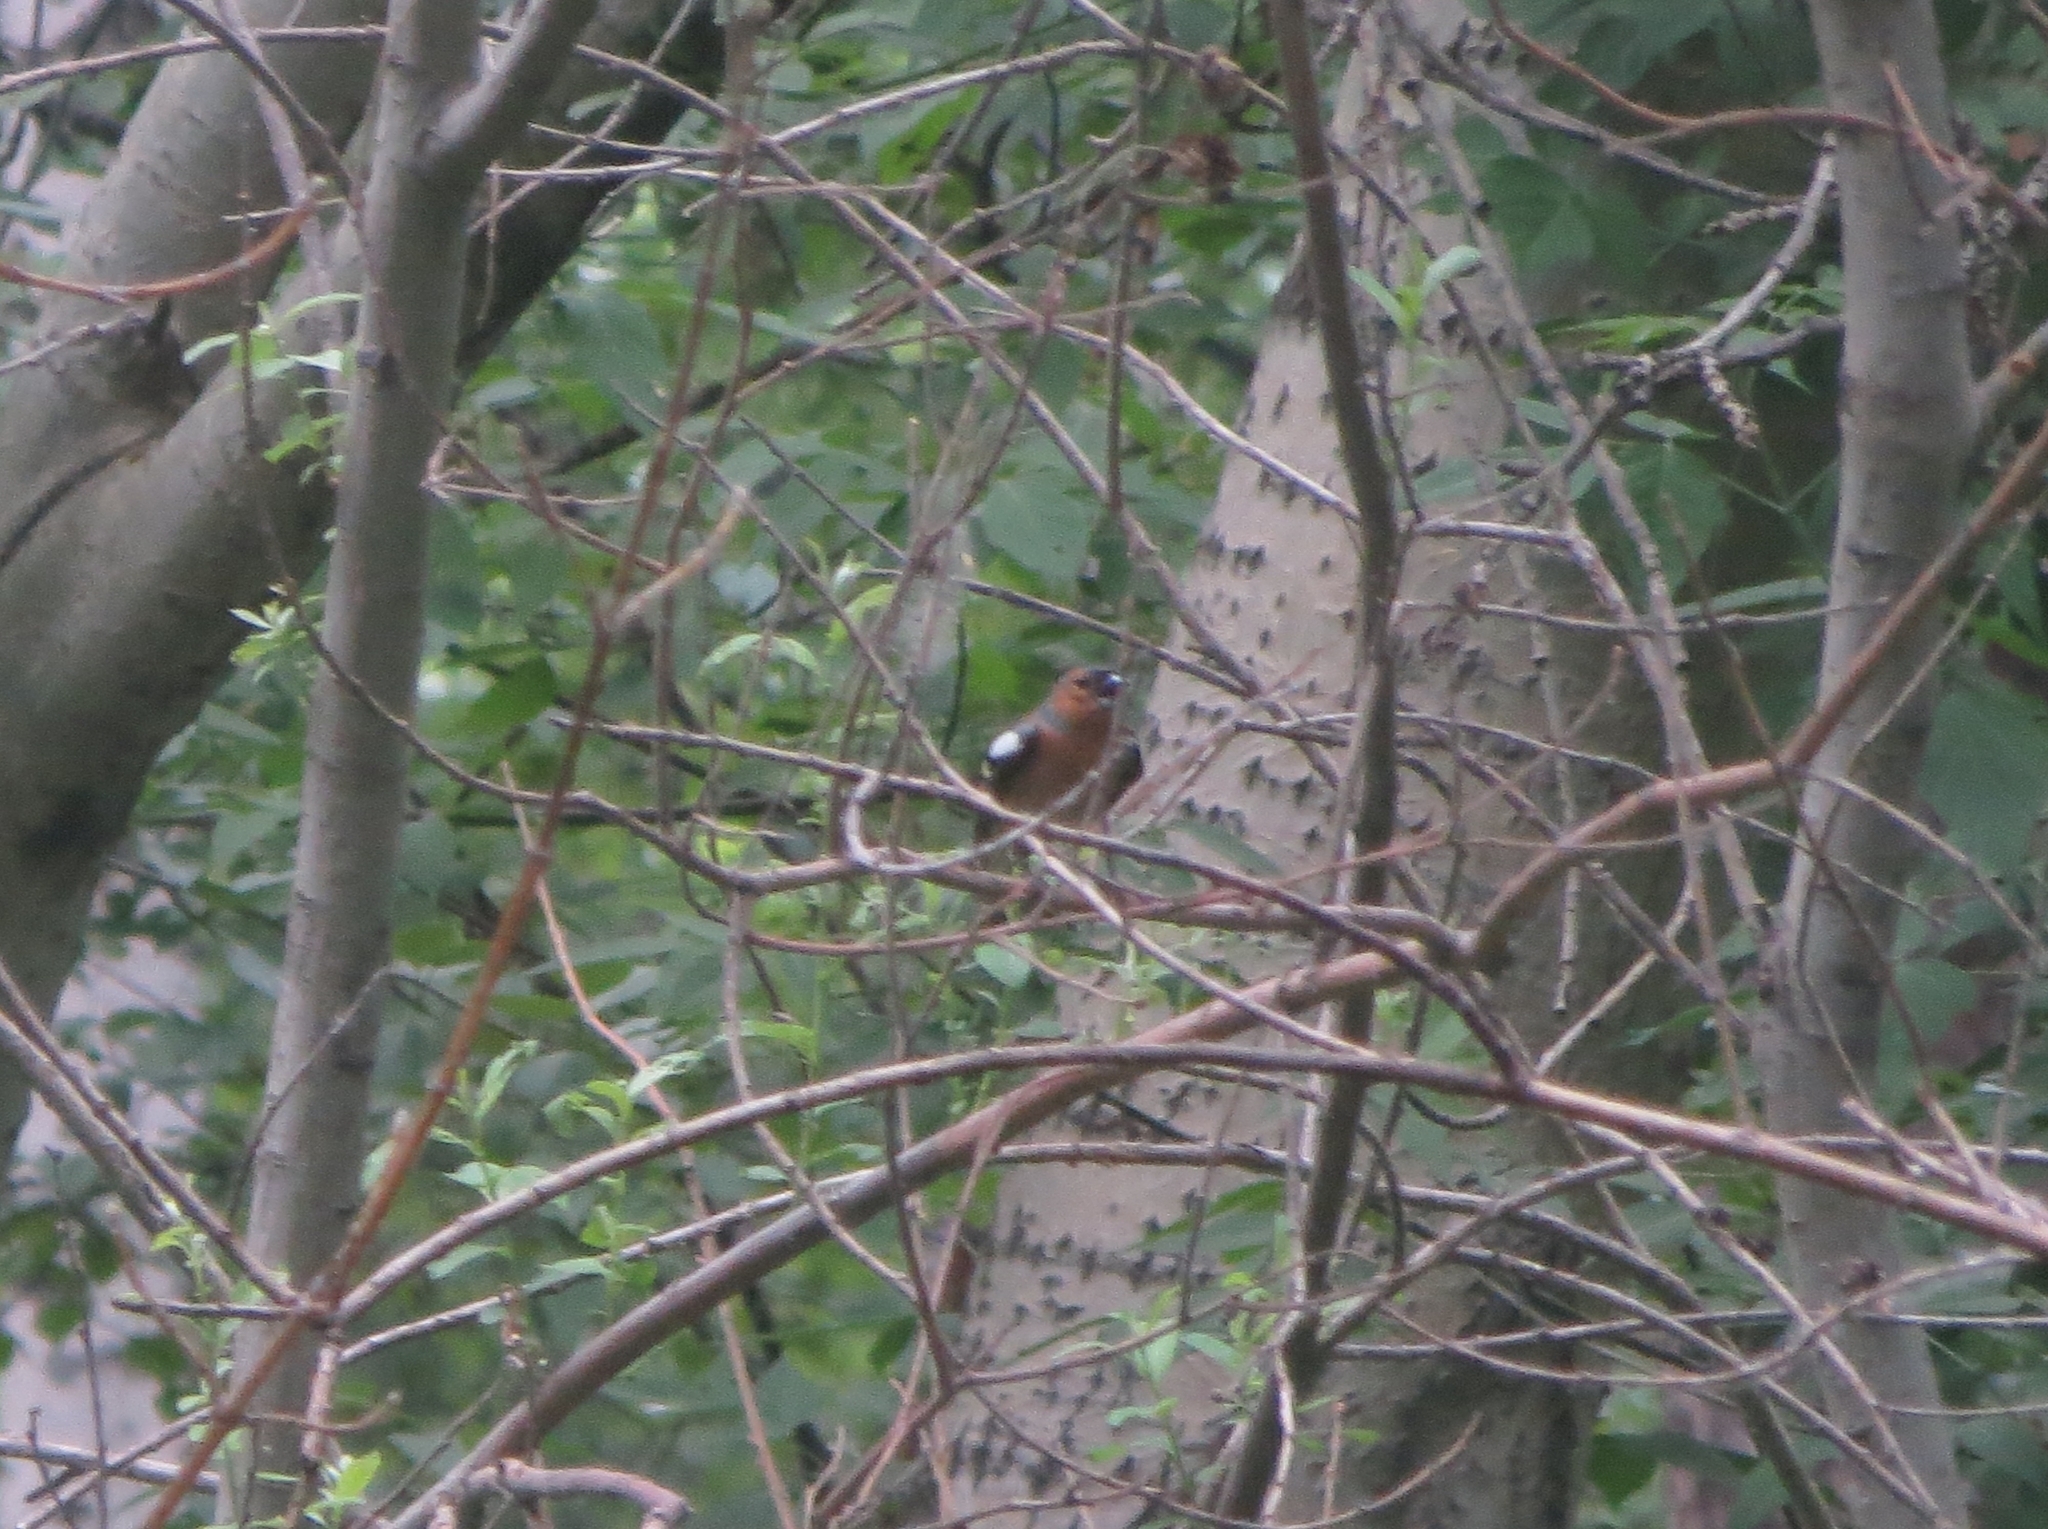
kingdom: Animalia
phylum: Chordata
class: Aves
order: Passeriformes
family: Fringillidae
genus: Fringilla
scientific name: Fringilla coelebs
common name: Common chaffinch
